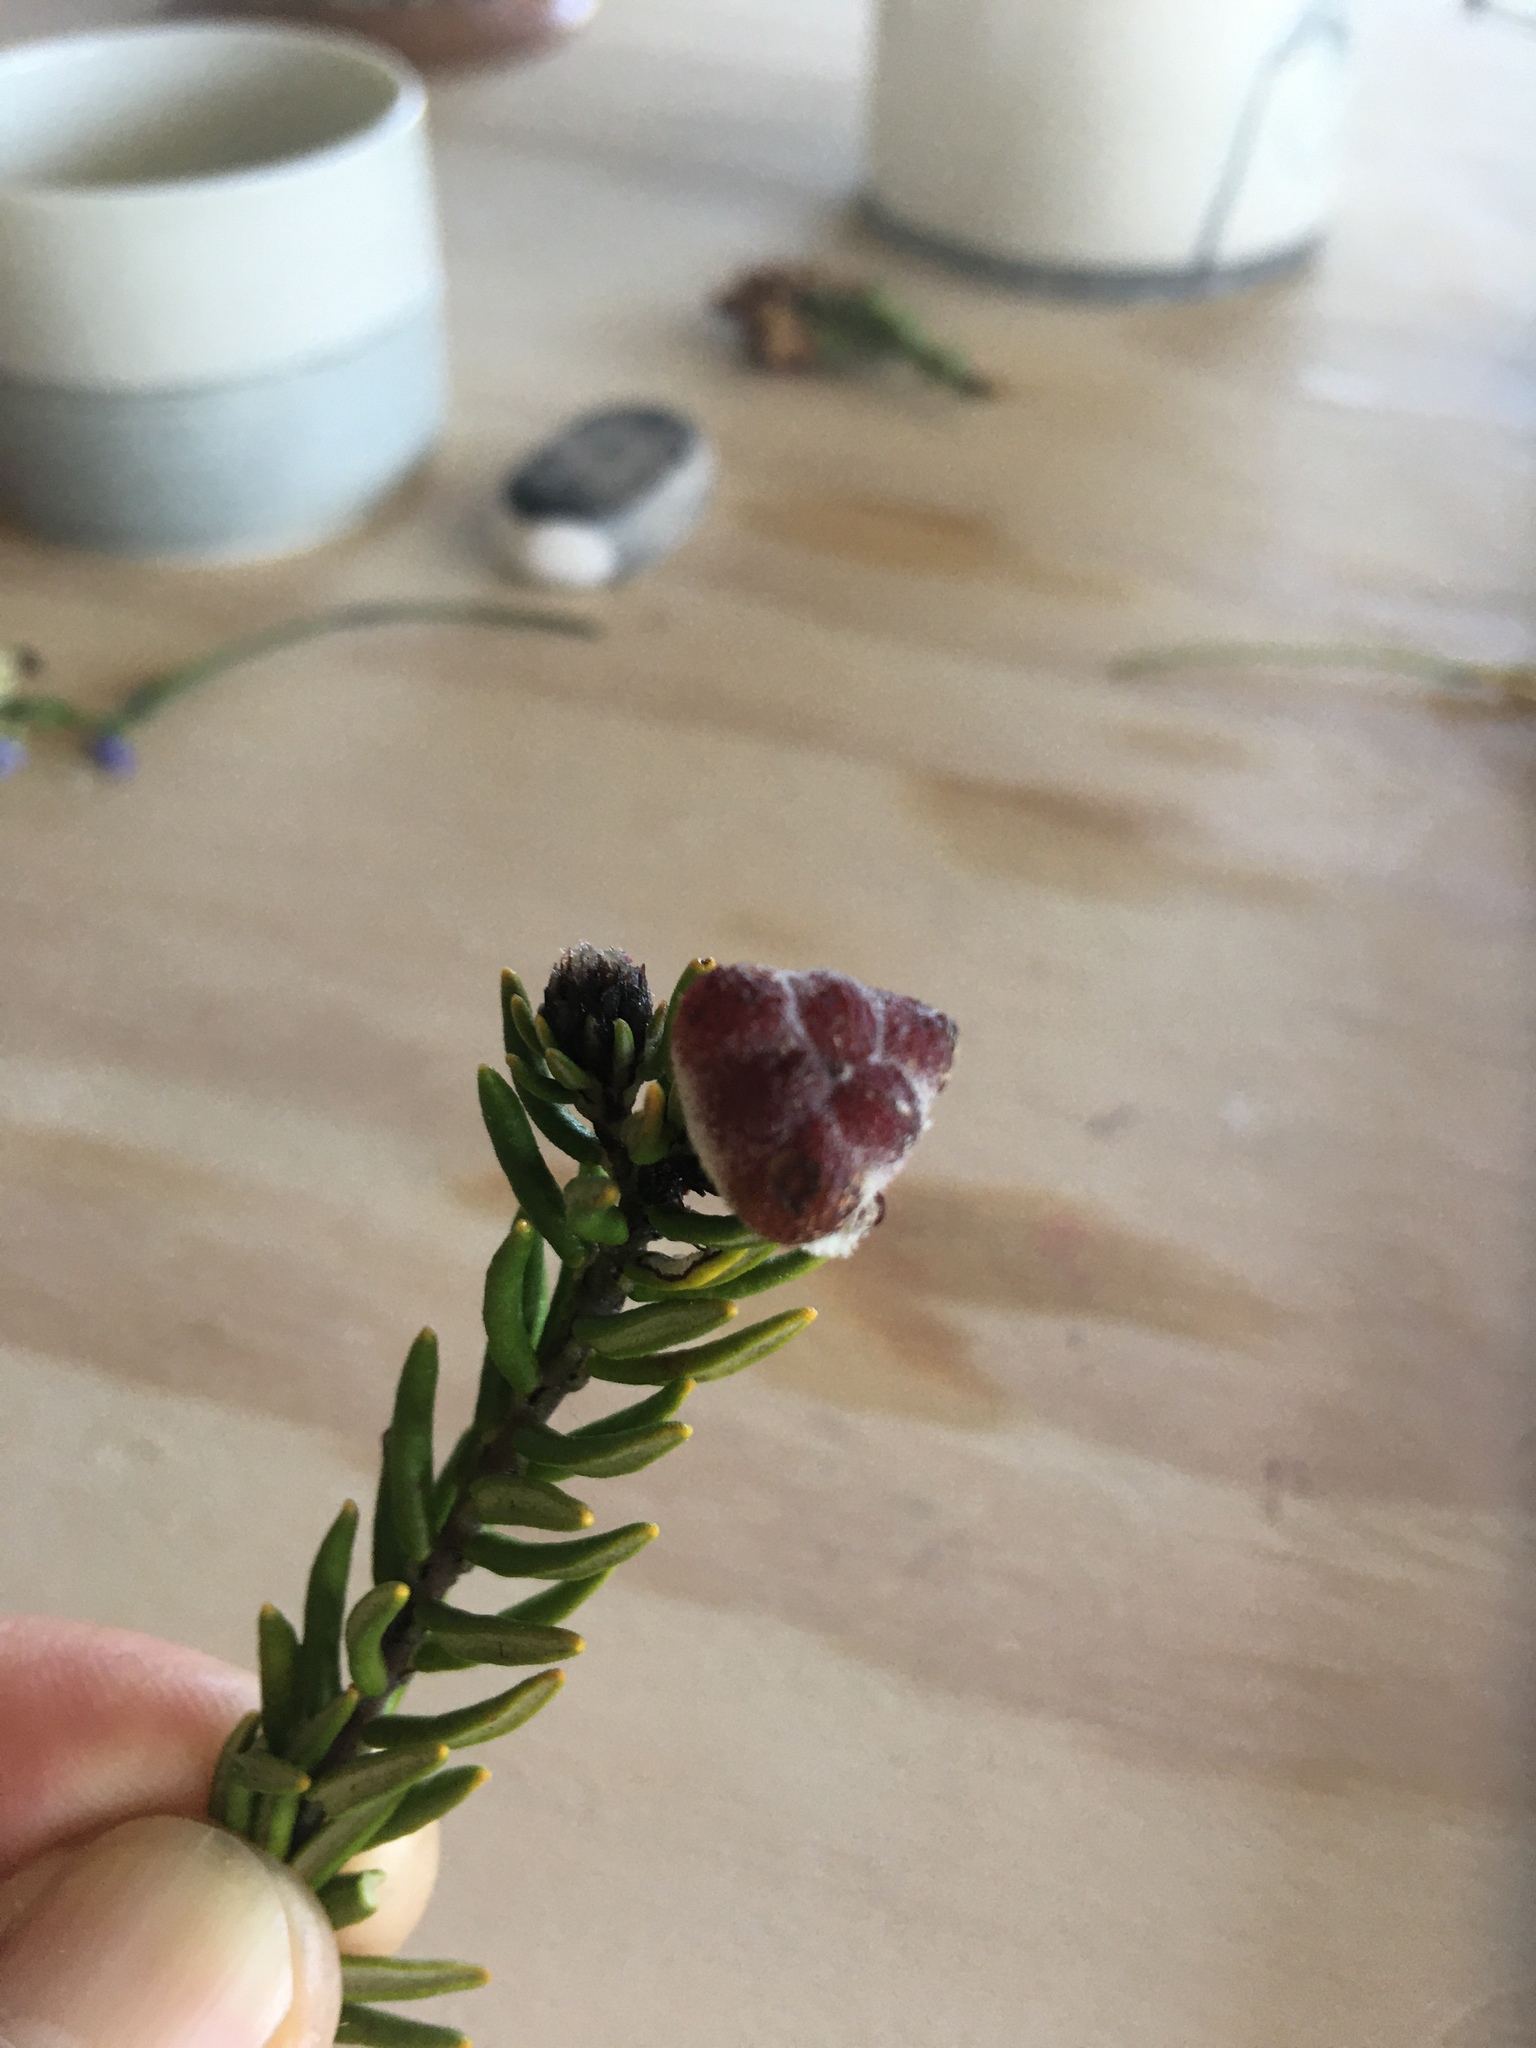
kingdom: Plantae
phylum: Tracheophyta
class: Magnoliopsida
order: Rosales
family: Rhamnaceae
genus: Trichocephalus
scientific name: Trichocephalus stipularis
